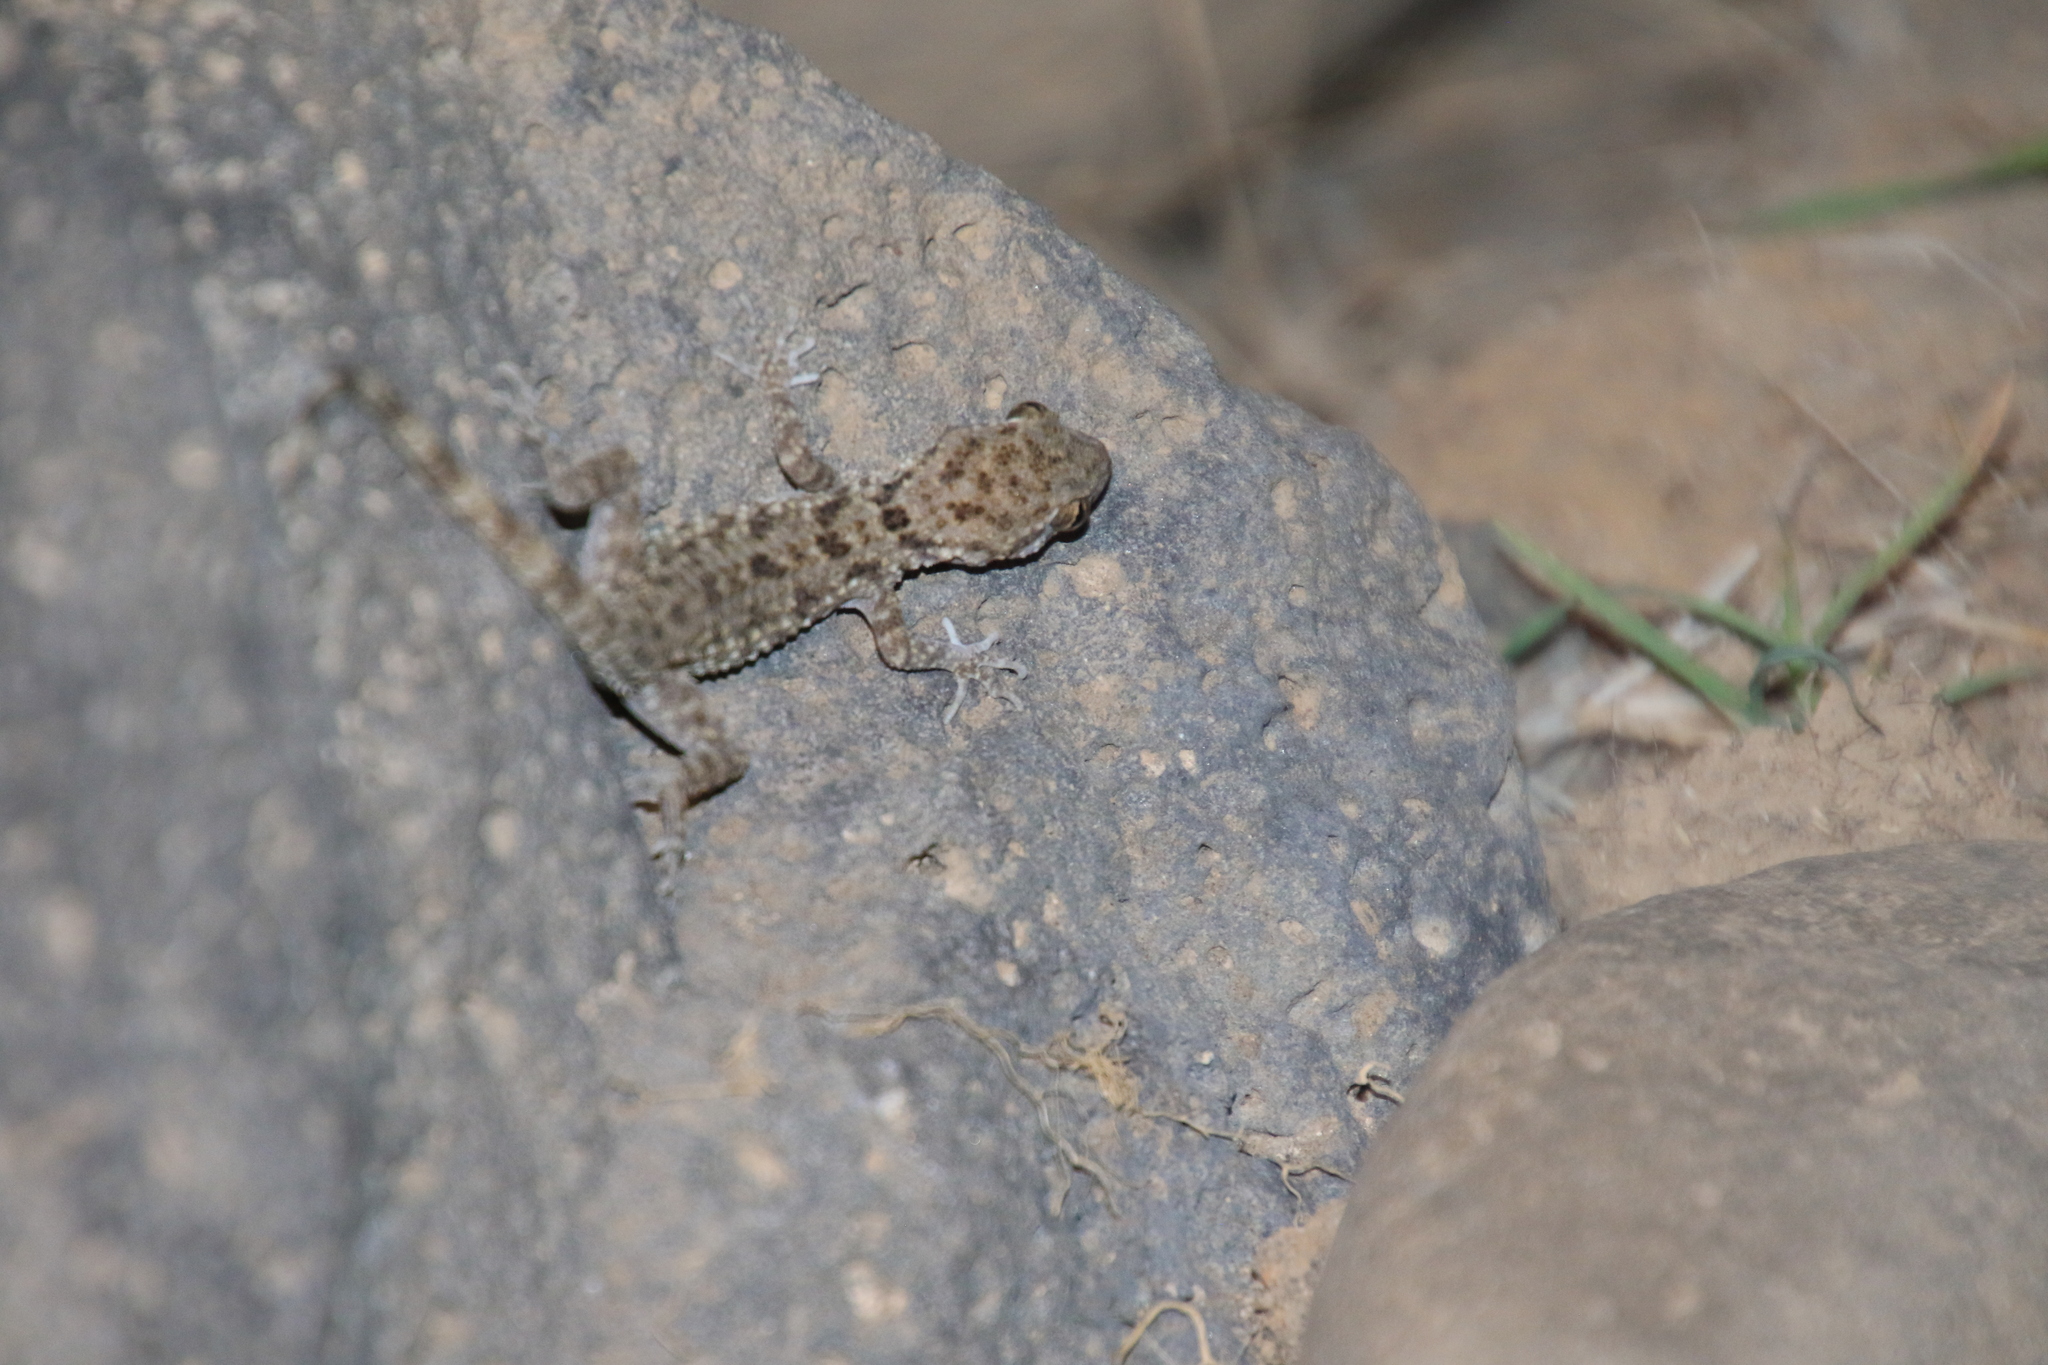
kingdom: Animalia
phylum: Chordata
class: Squamata
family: Gekkonidae
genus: Cyrtopodion
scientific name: Cyrtopodion scabrum
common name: Rough-tailed gecko
